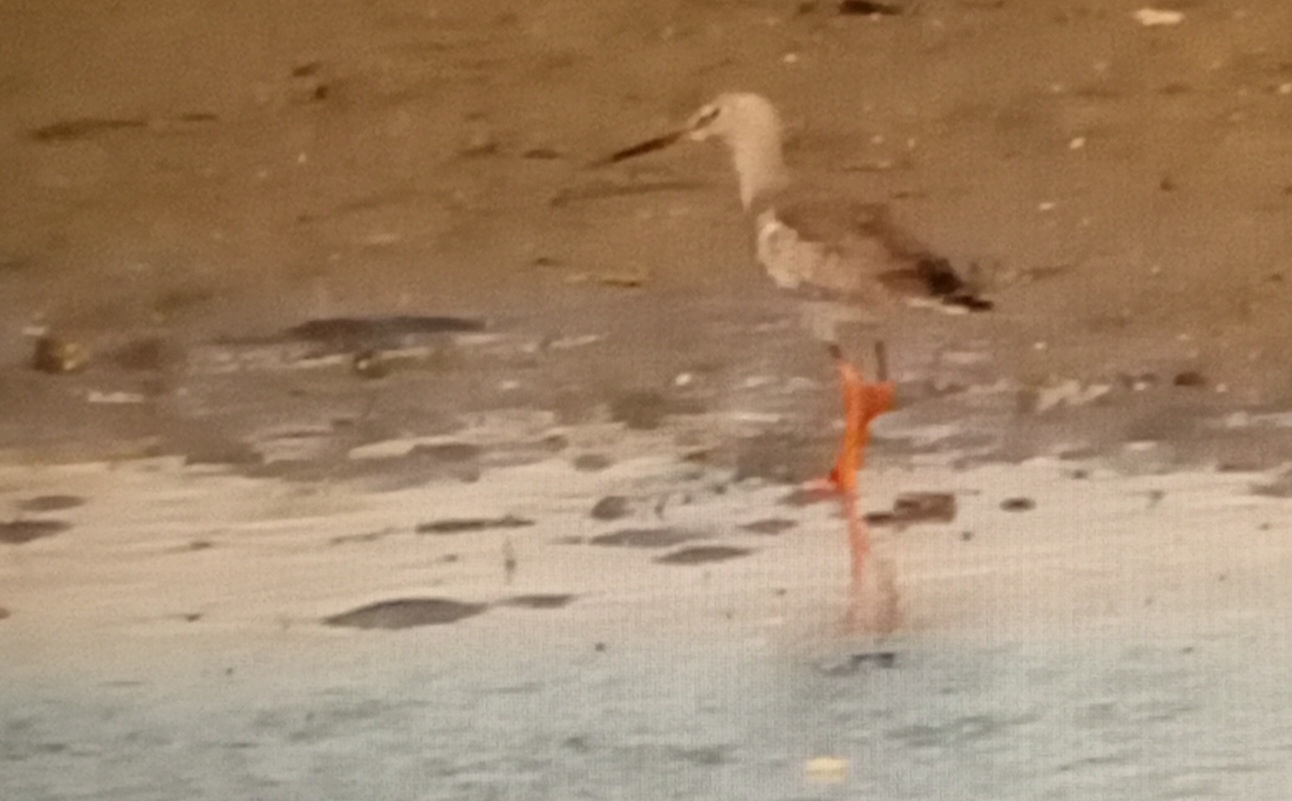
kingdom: Animalia
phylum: Chordata
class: Aves
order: Charadriiformes
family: Scolopacidae
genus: Tringa
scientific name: Tringa totanus
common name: Common redshank
